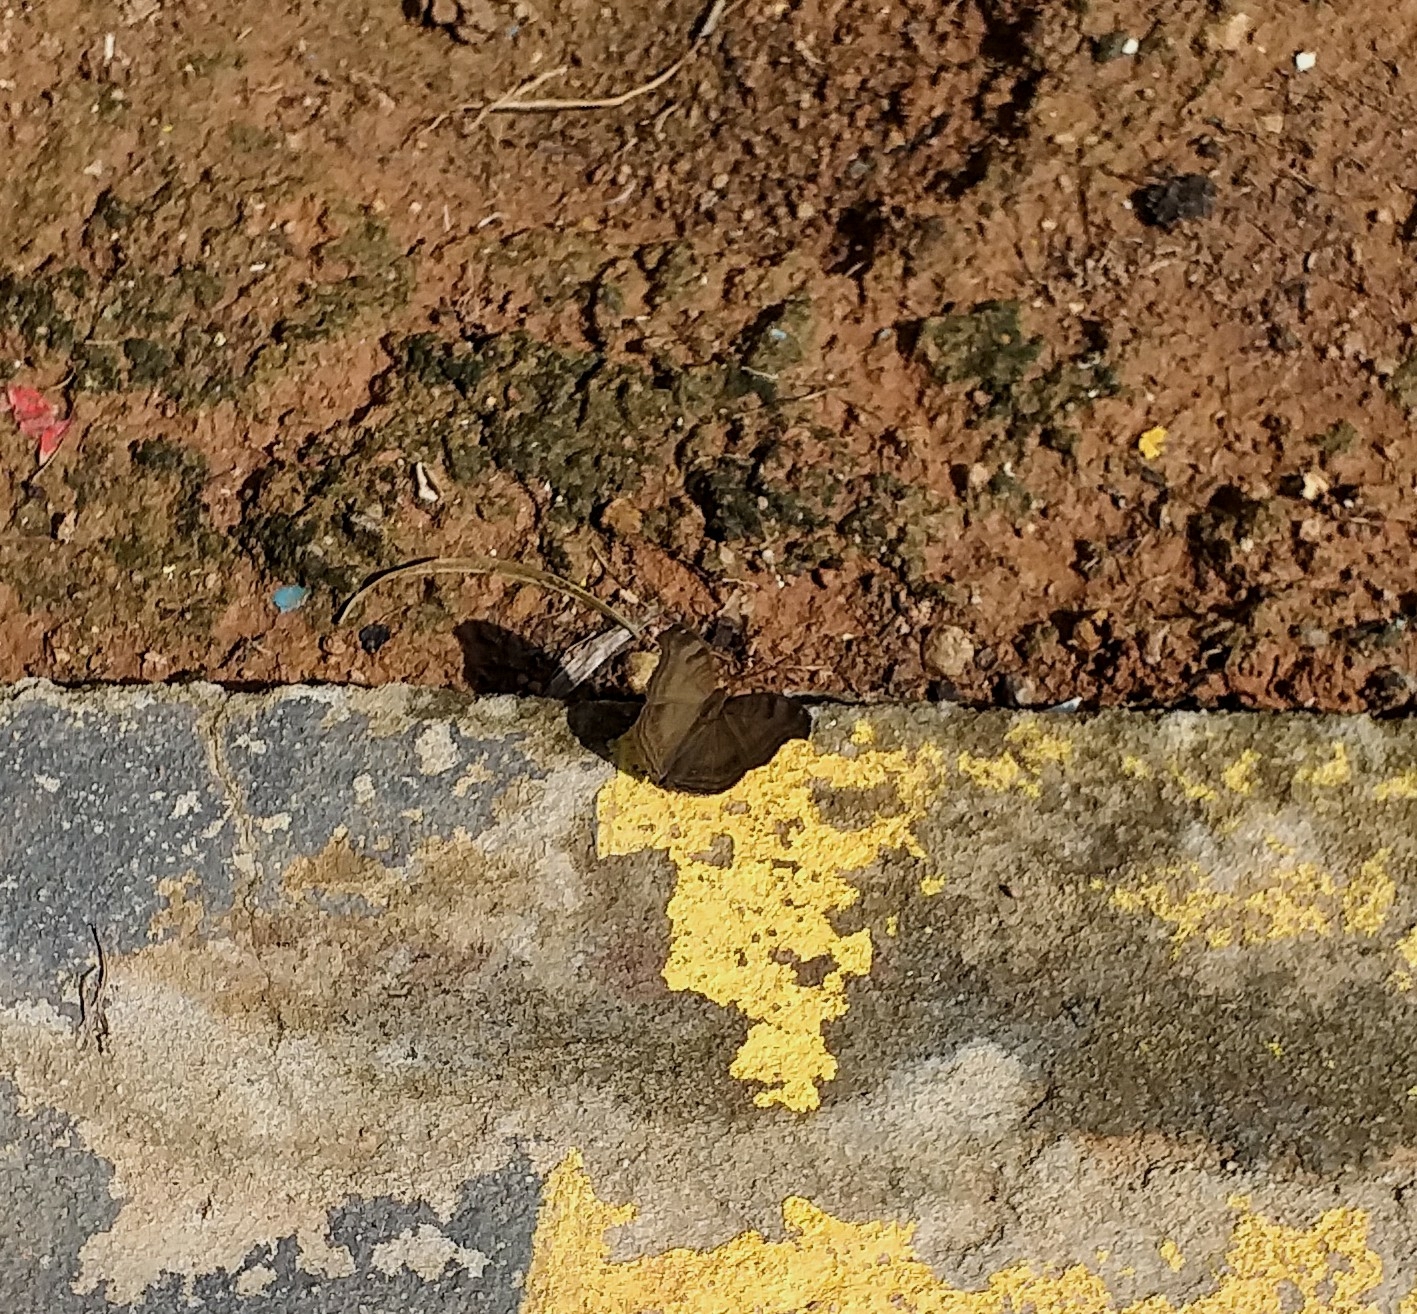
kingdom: Animalia
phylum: Arthropoda
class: Insecta
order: Lepidoptera
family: Nymphalidae
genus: Junonia
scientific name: Junonia iphita
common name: Chocolate pansy
